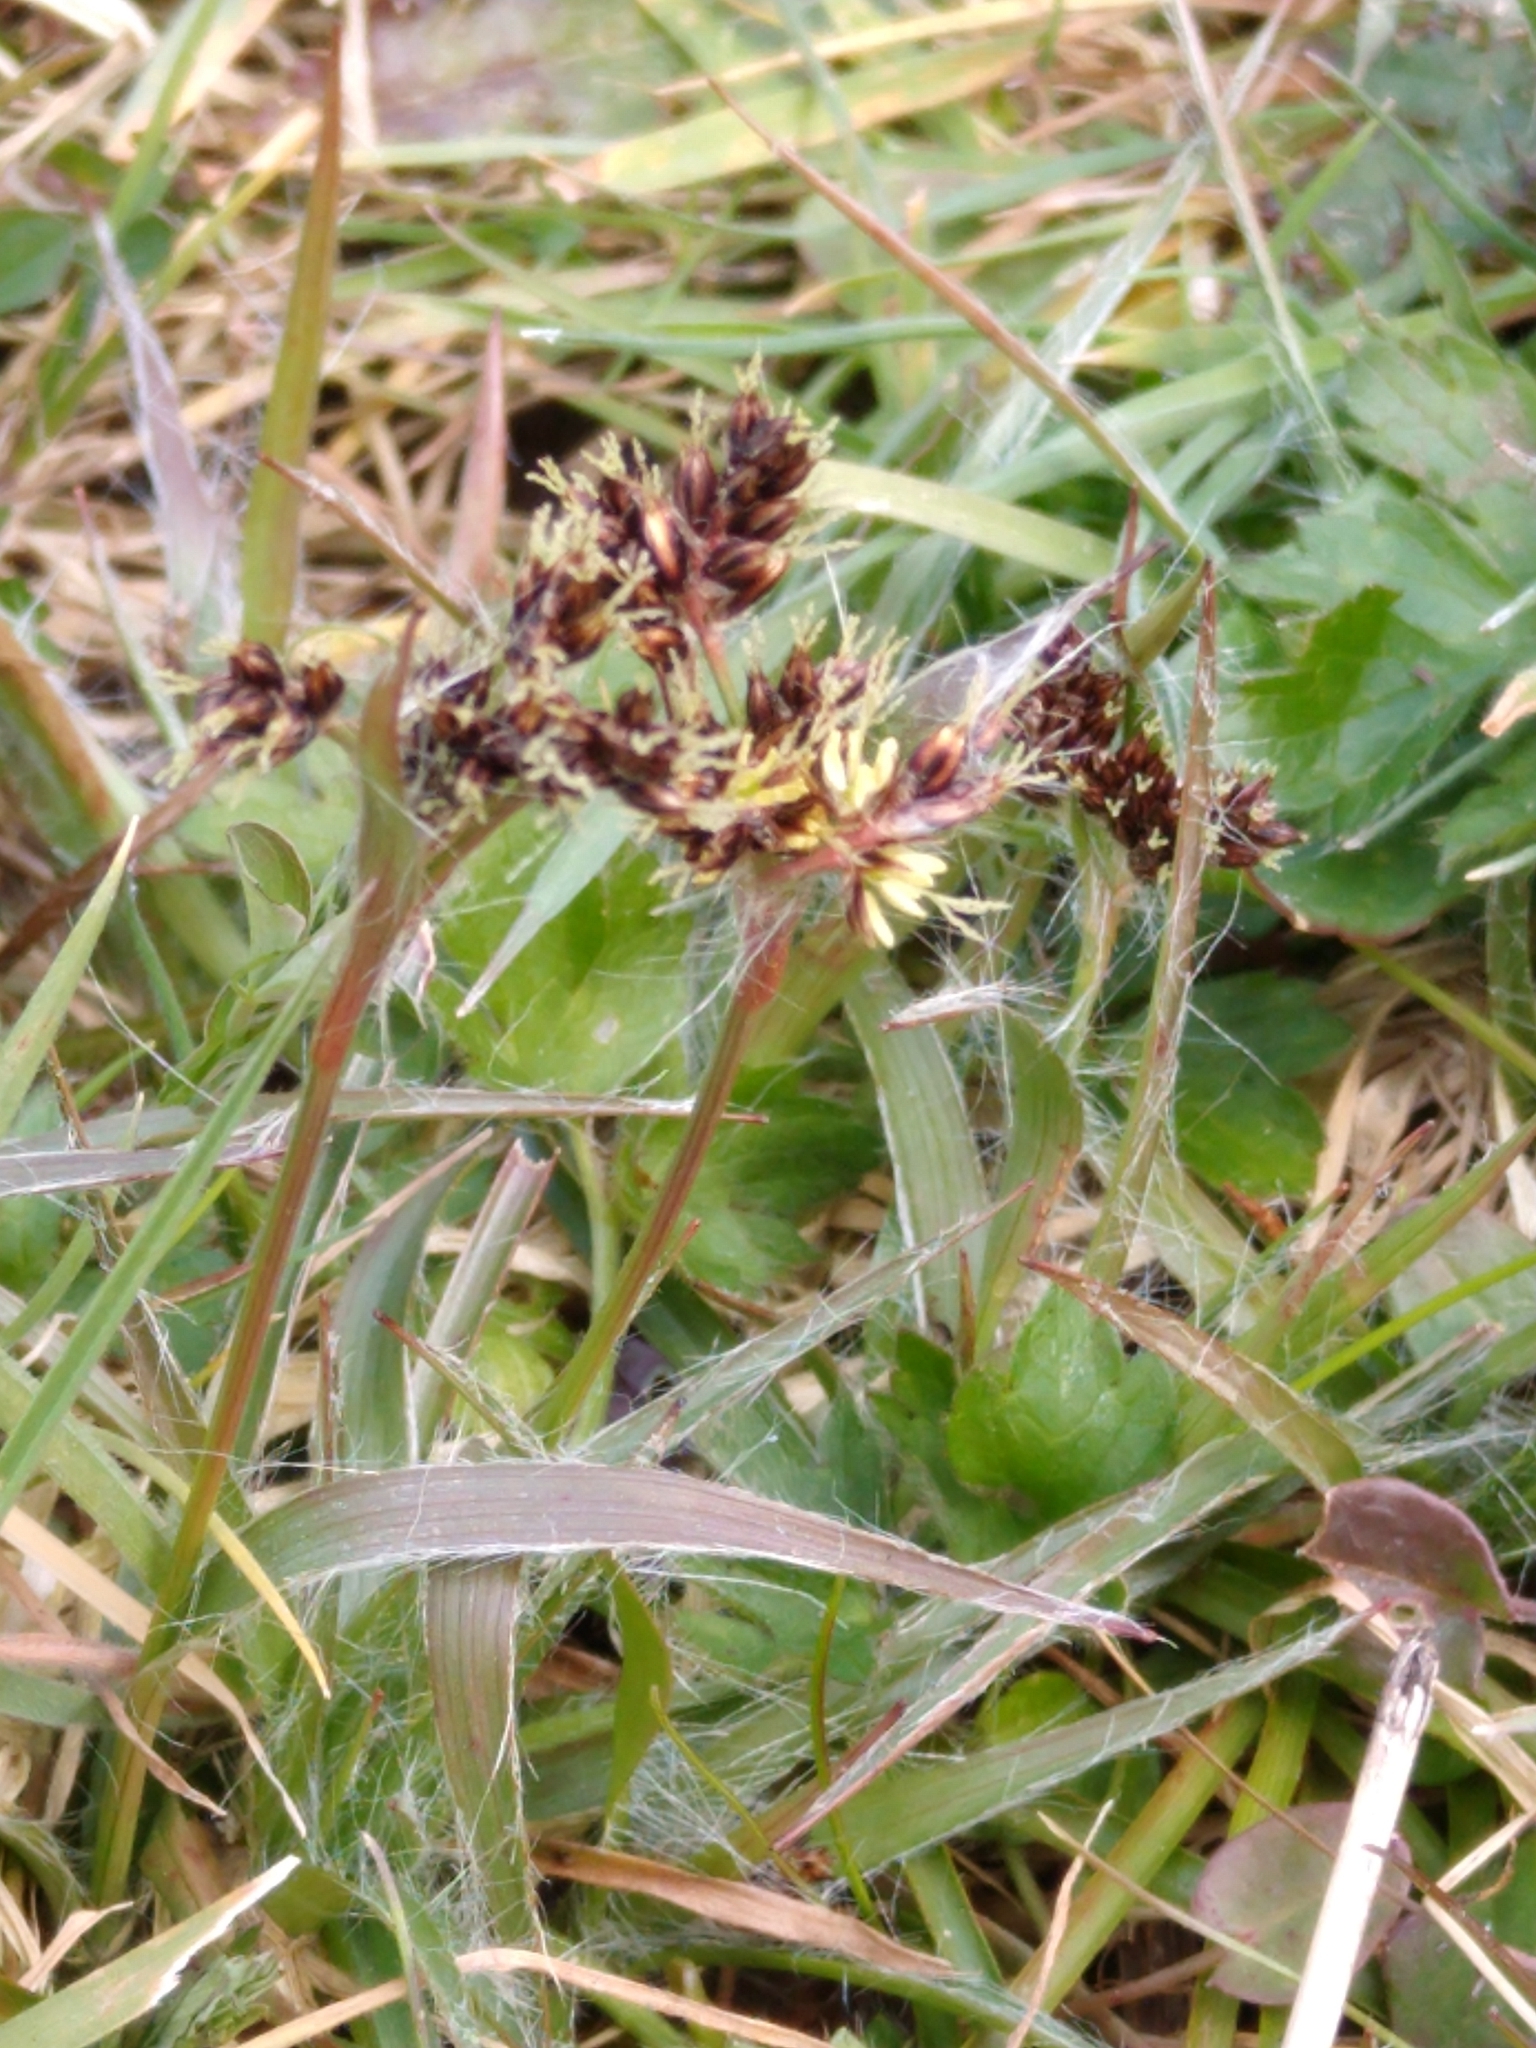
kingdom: Plantae
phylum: Tracheophyta
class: Liliopsida
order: Poales
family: Juncaceae
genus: Luzula
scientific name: Luzula campestris
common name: Field wood-rush
